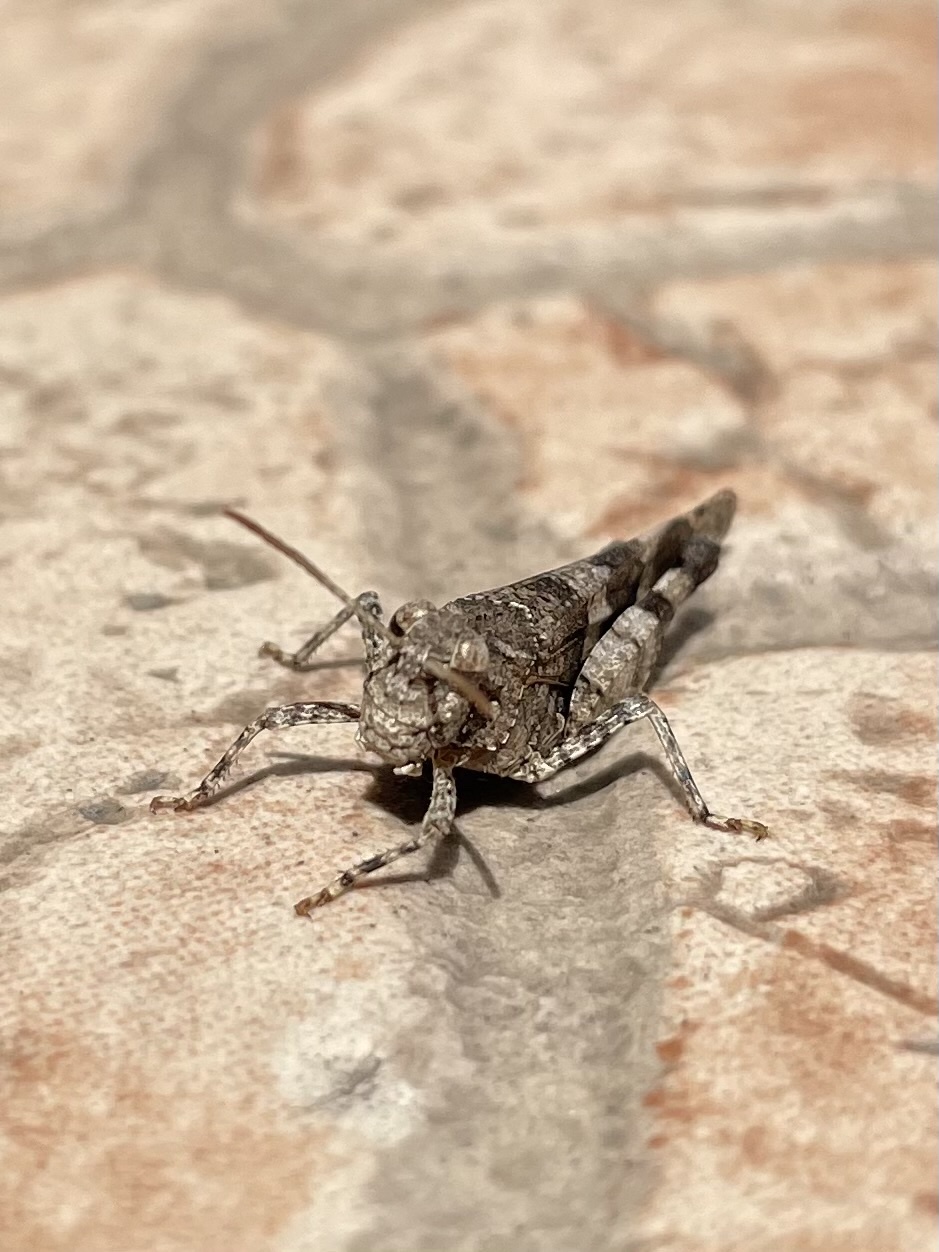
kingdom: Animalia
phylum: Arthropoda
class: Insecta
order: Orthoptera
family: Acrididae
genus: Oedipoda
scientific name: Oedipoda caerulescens
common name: Blue-winged grasshopper
